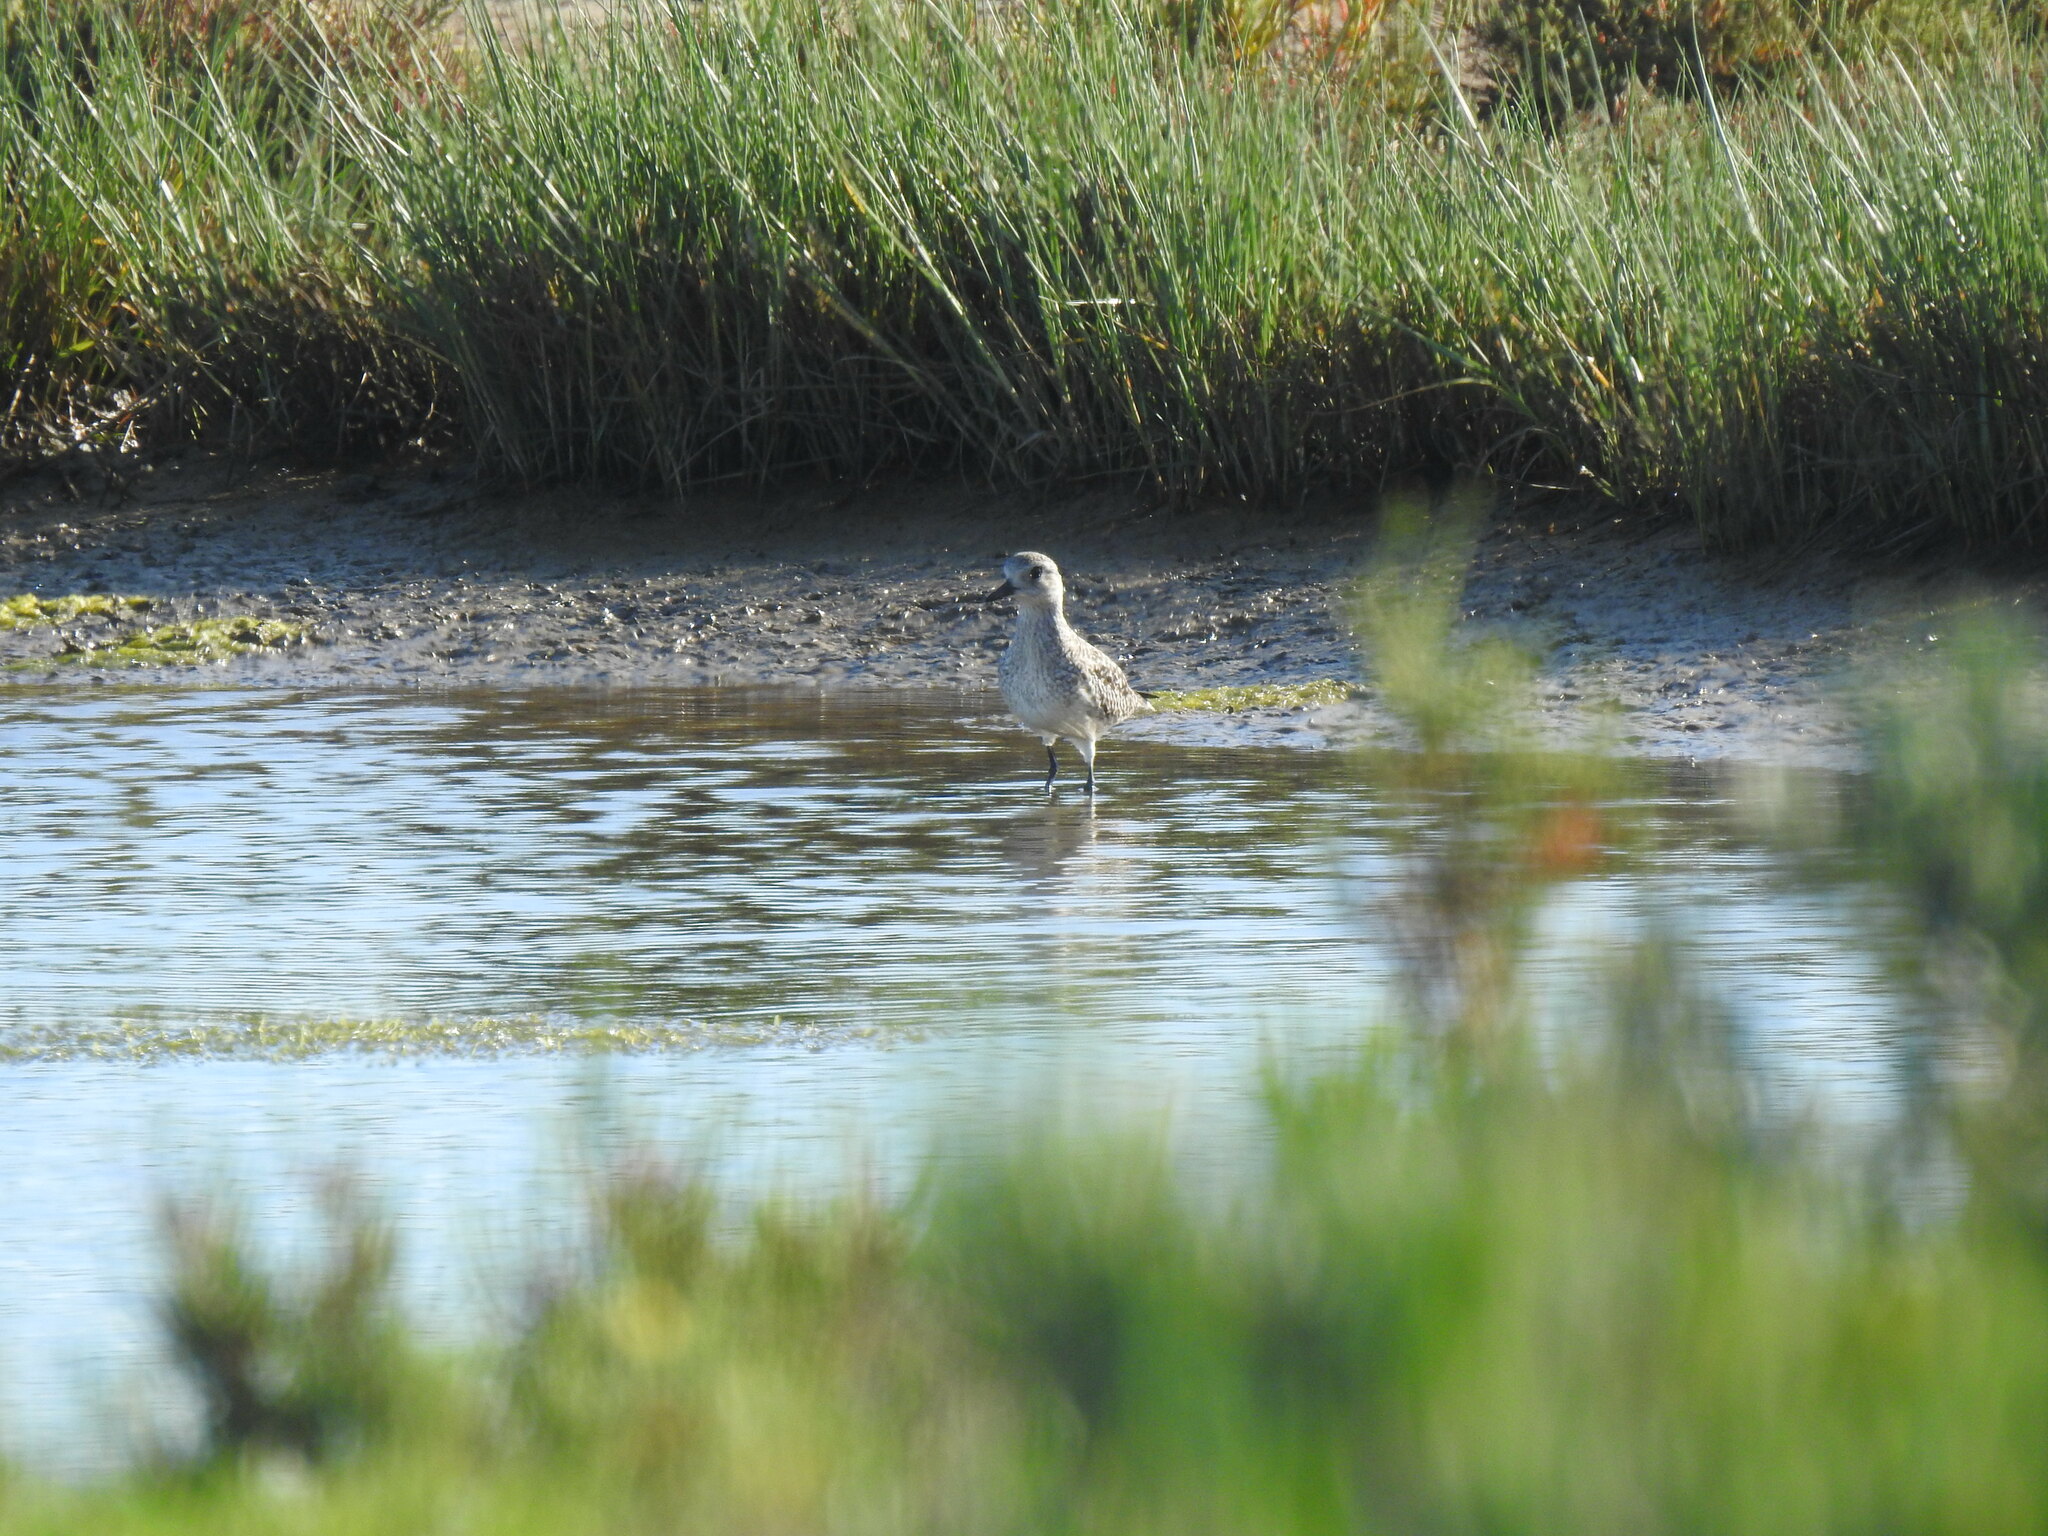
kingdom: Animalia
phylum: Chordata
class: Aves
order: Charadriiformes
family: Charadriidae
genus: Pluvialis
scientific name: Pluvialis squatarola
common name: Grey plover
